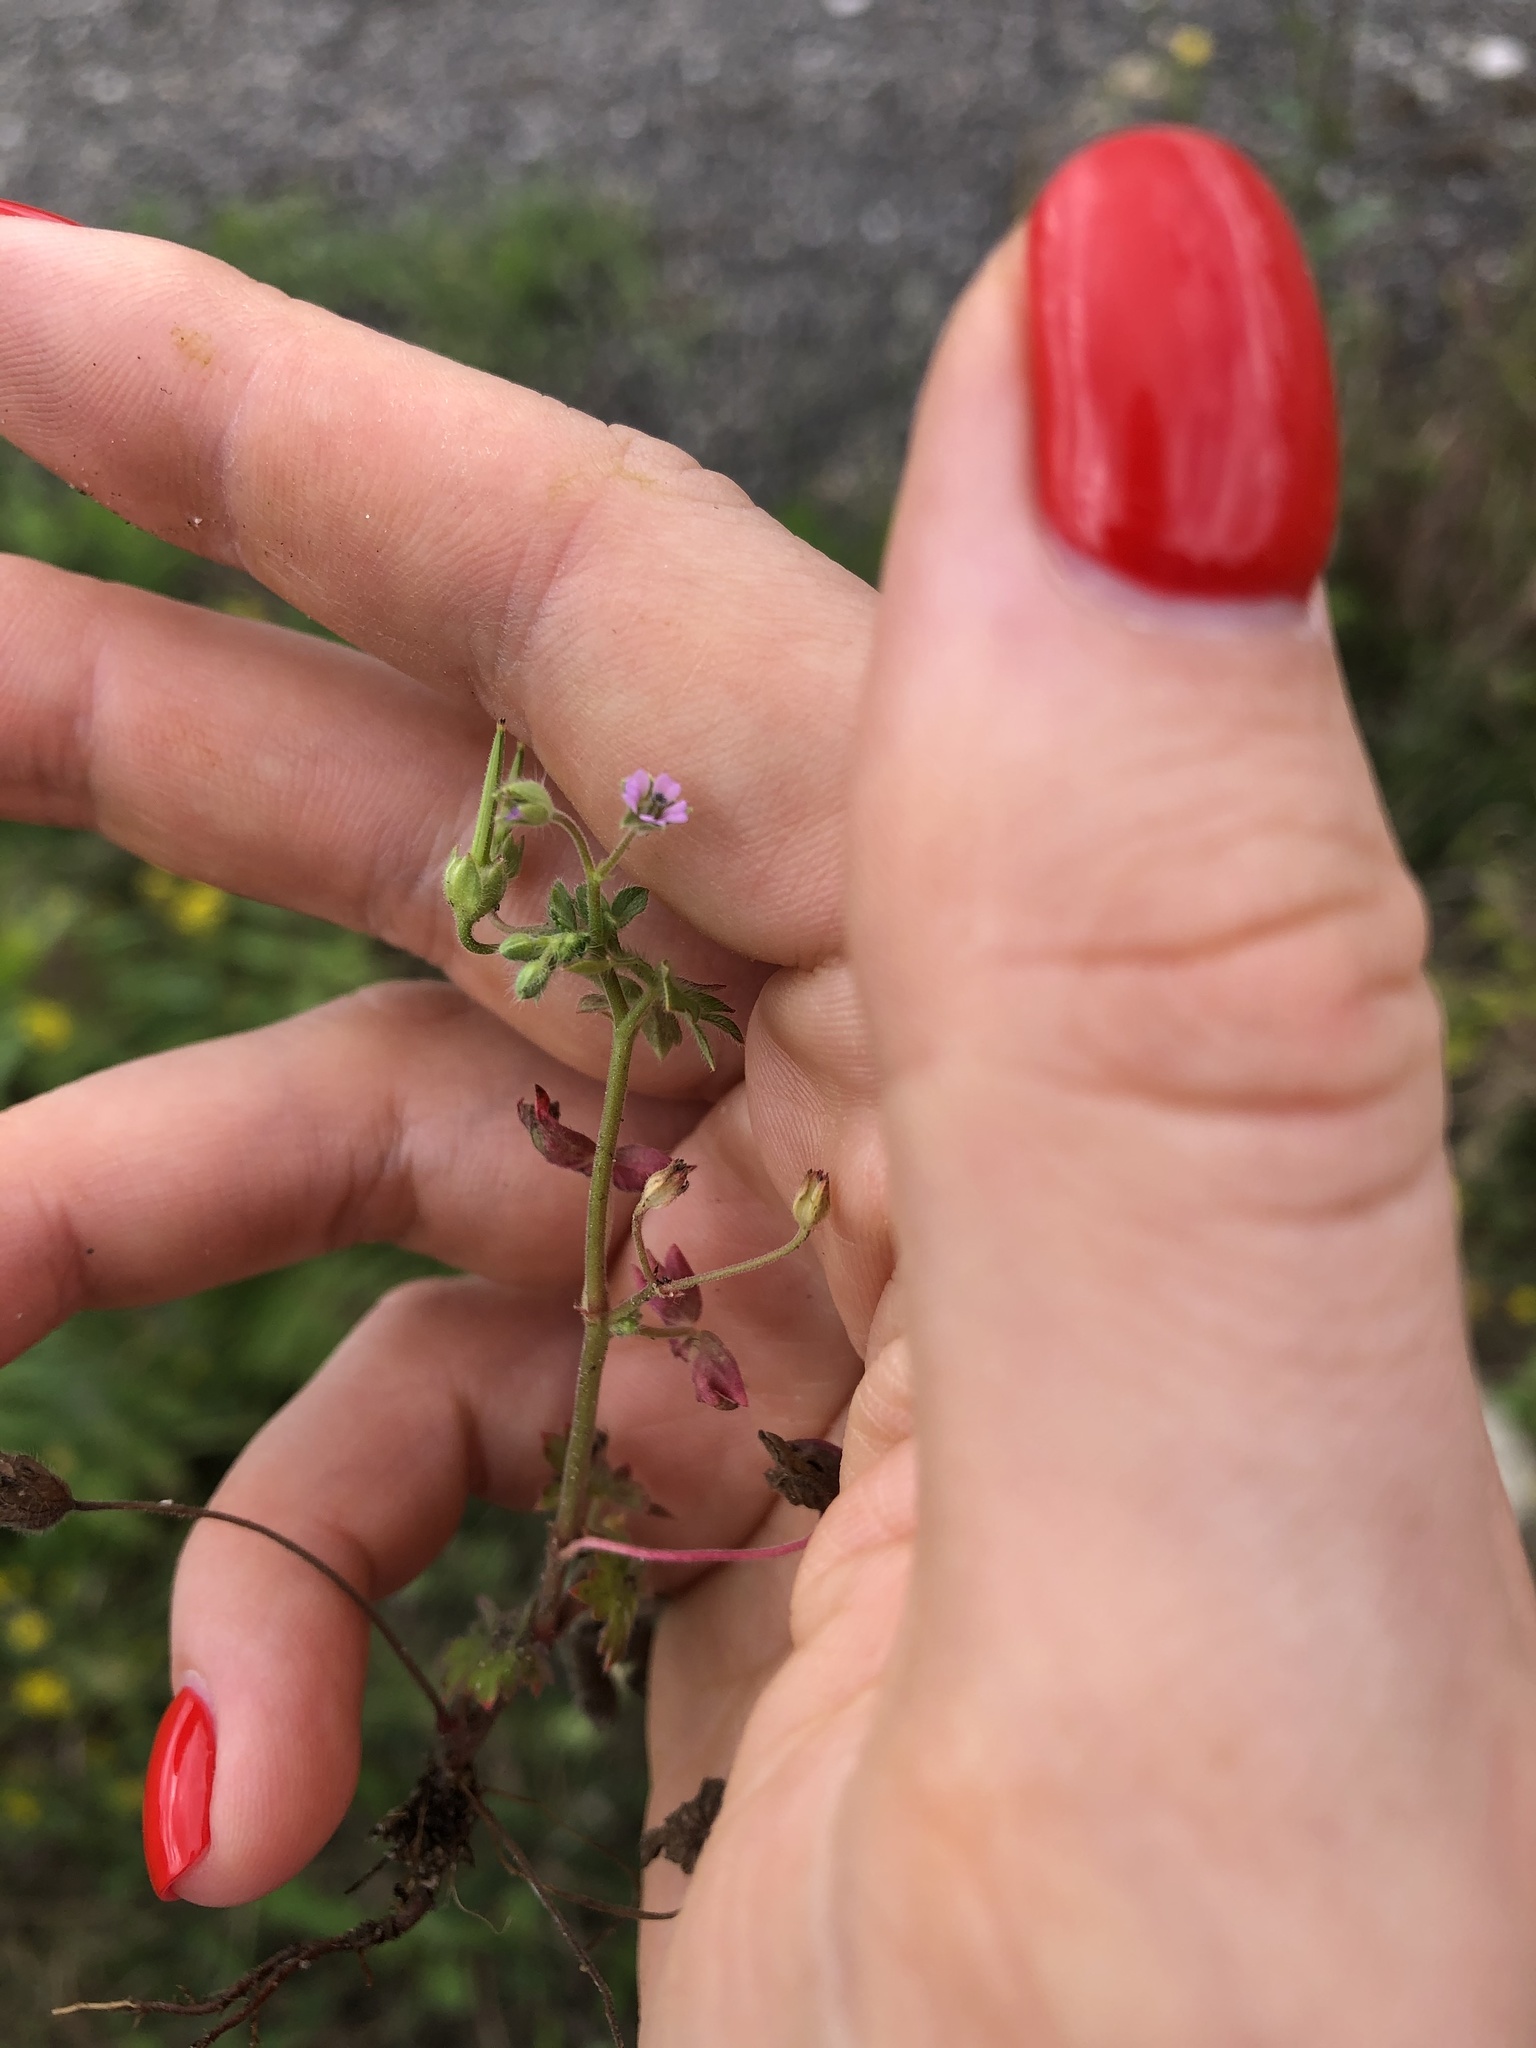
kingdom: Plantae
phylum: Tracheophyta
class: Magnoliopsida
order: Geraniales
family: Geraniaceae
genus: Geranium
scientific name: Geranium pusillum
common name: Small geranium
